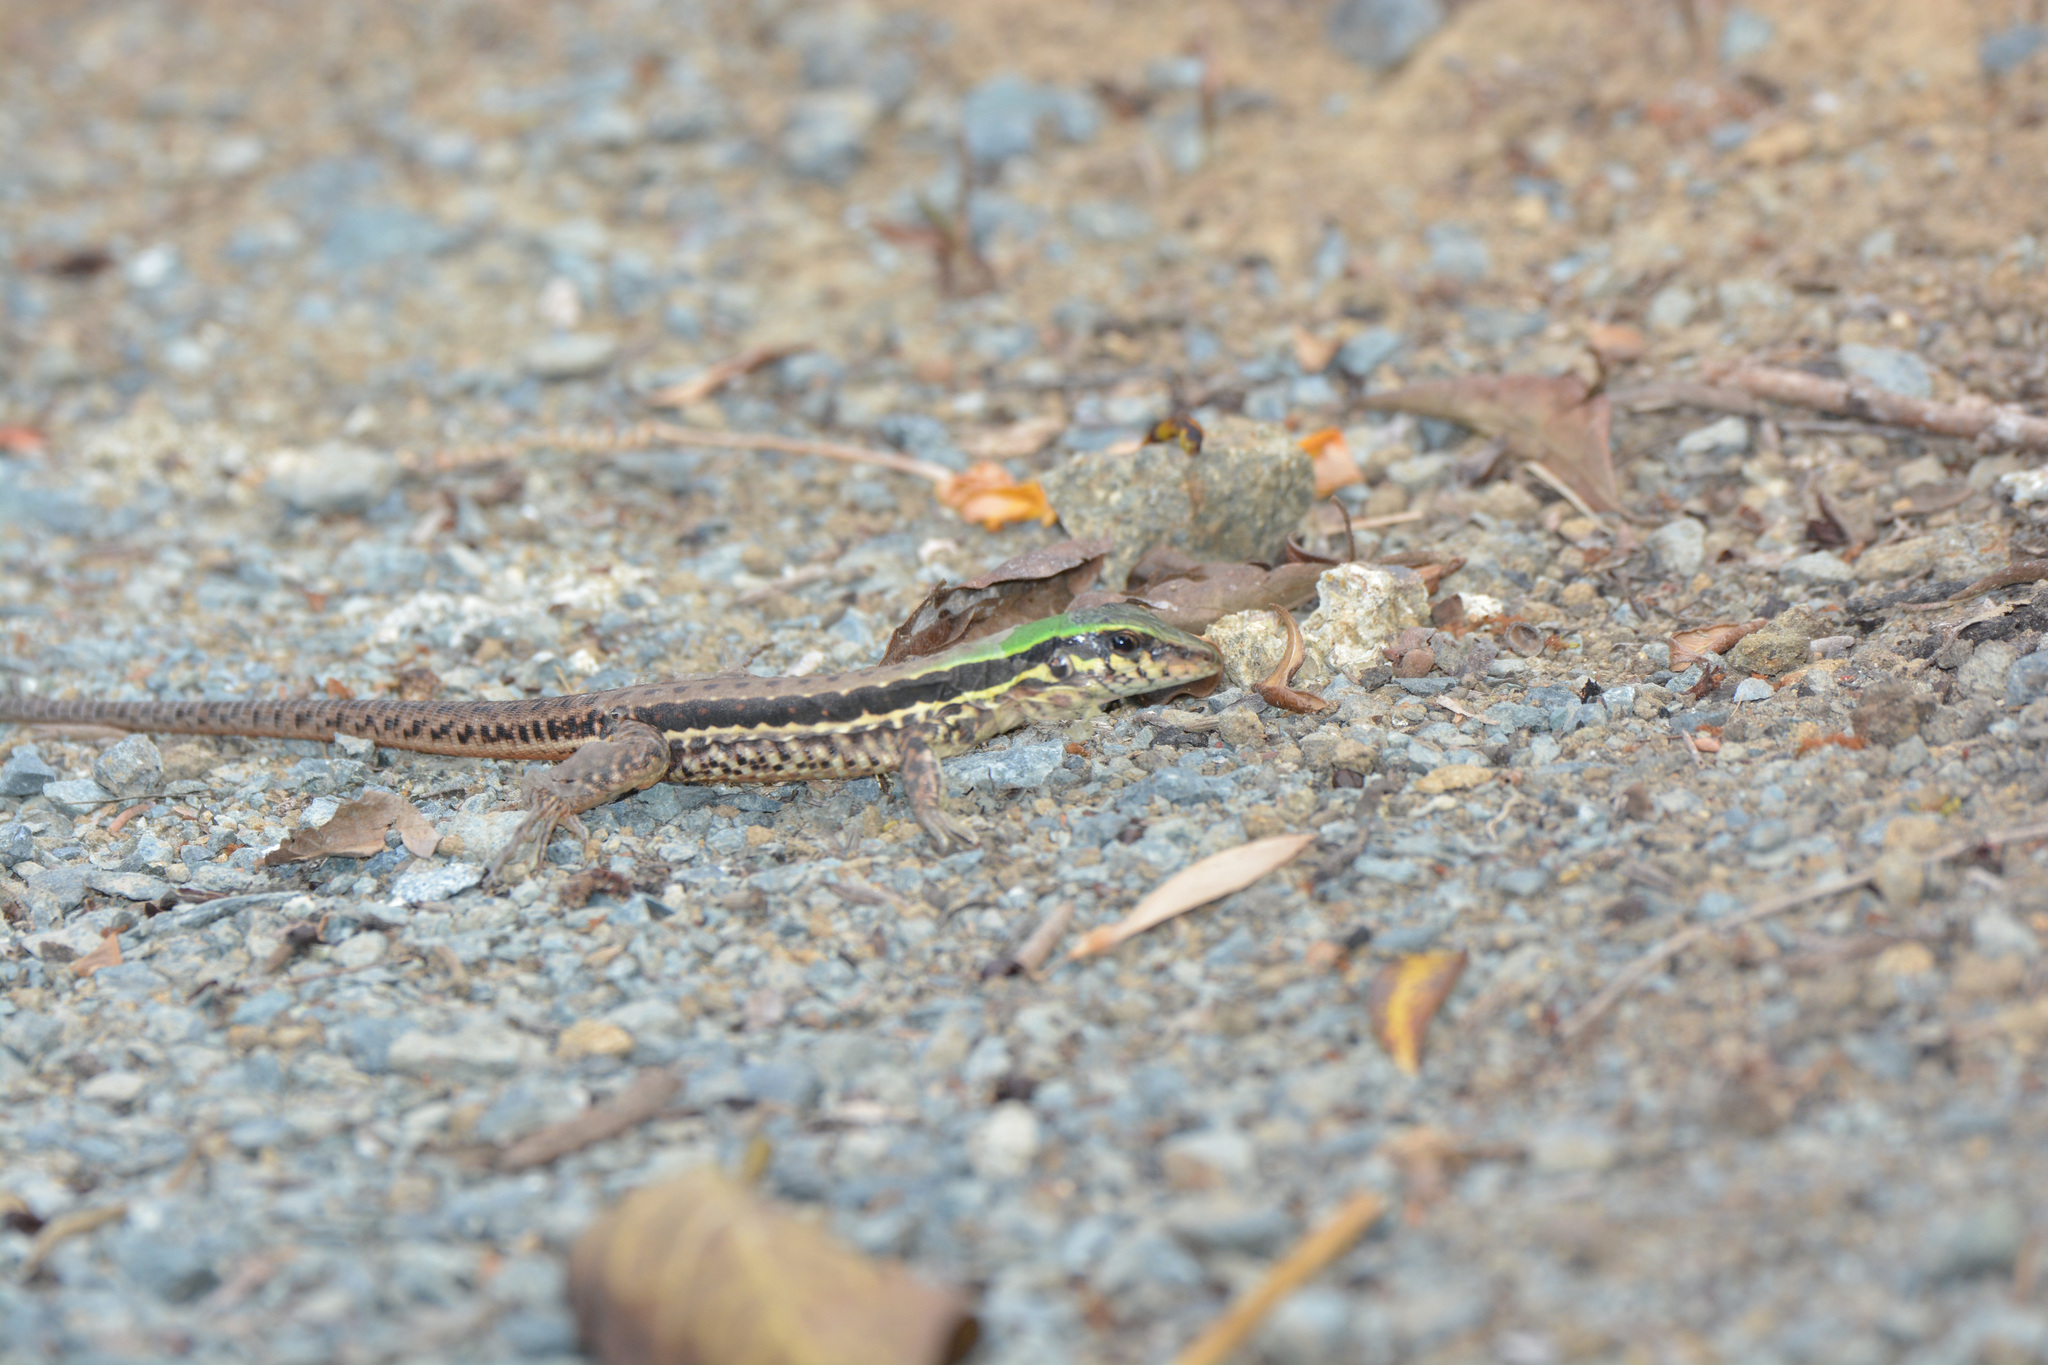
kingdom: Animalia
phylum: Chordata
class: Squamata
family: Teiidae
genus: Ameiva
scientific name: Ameiva atrigularis
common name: Venezuelan ameiva
